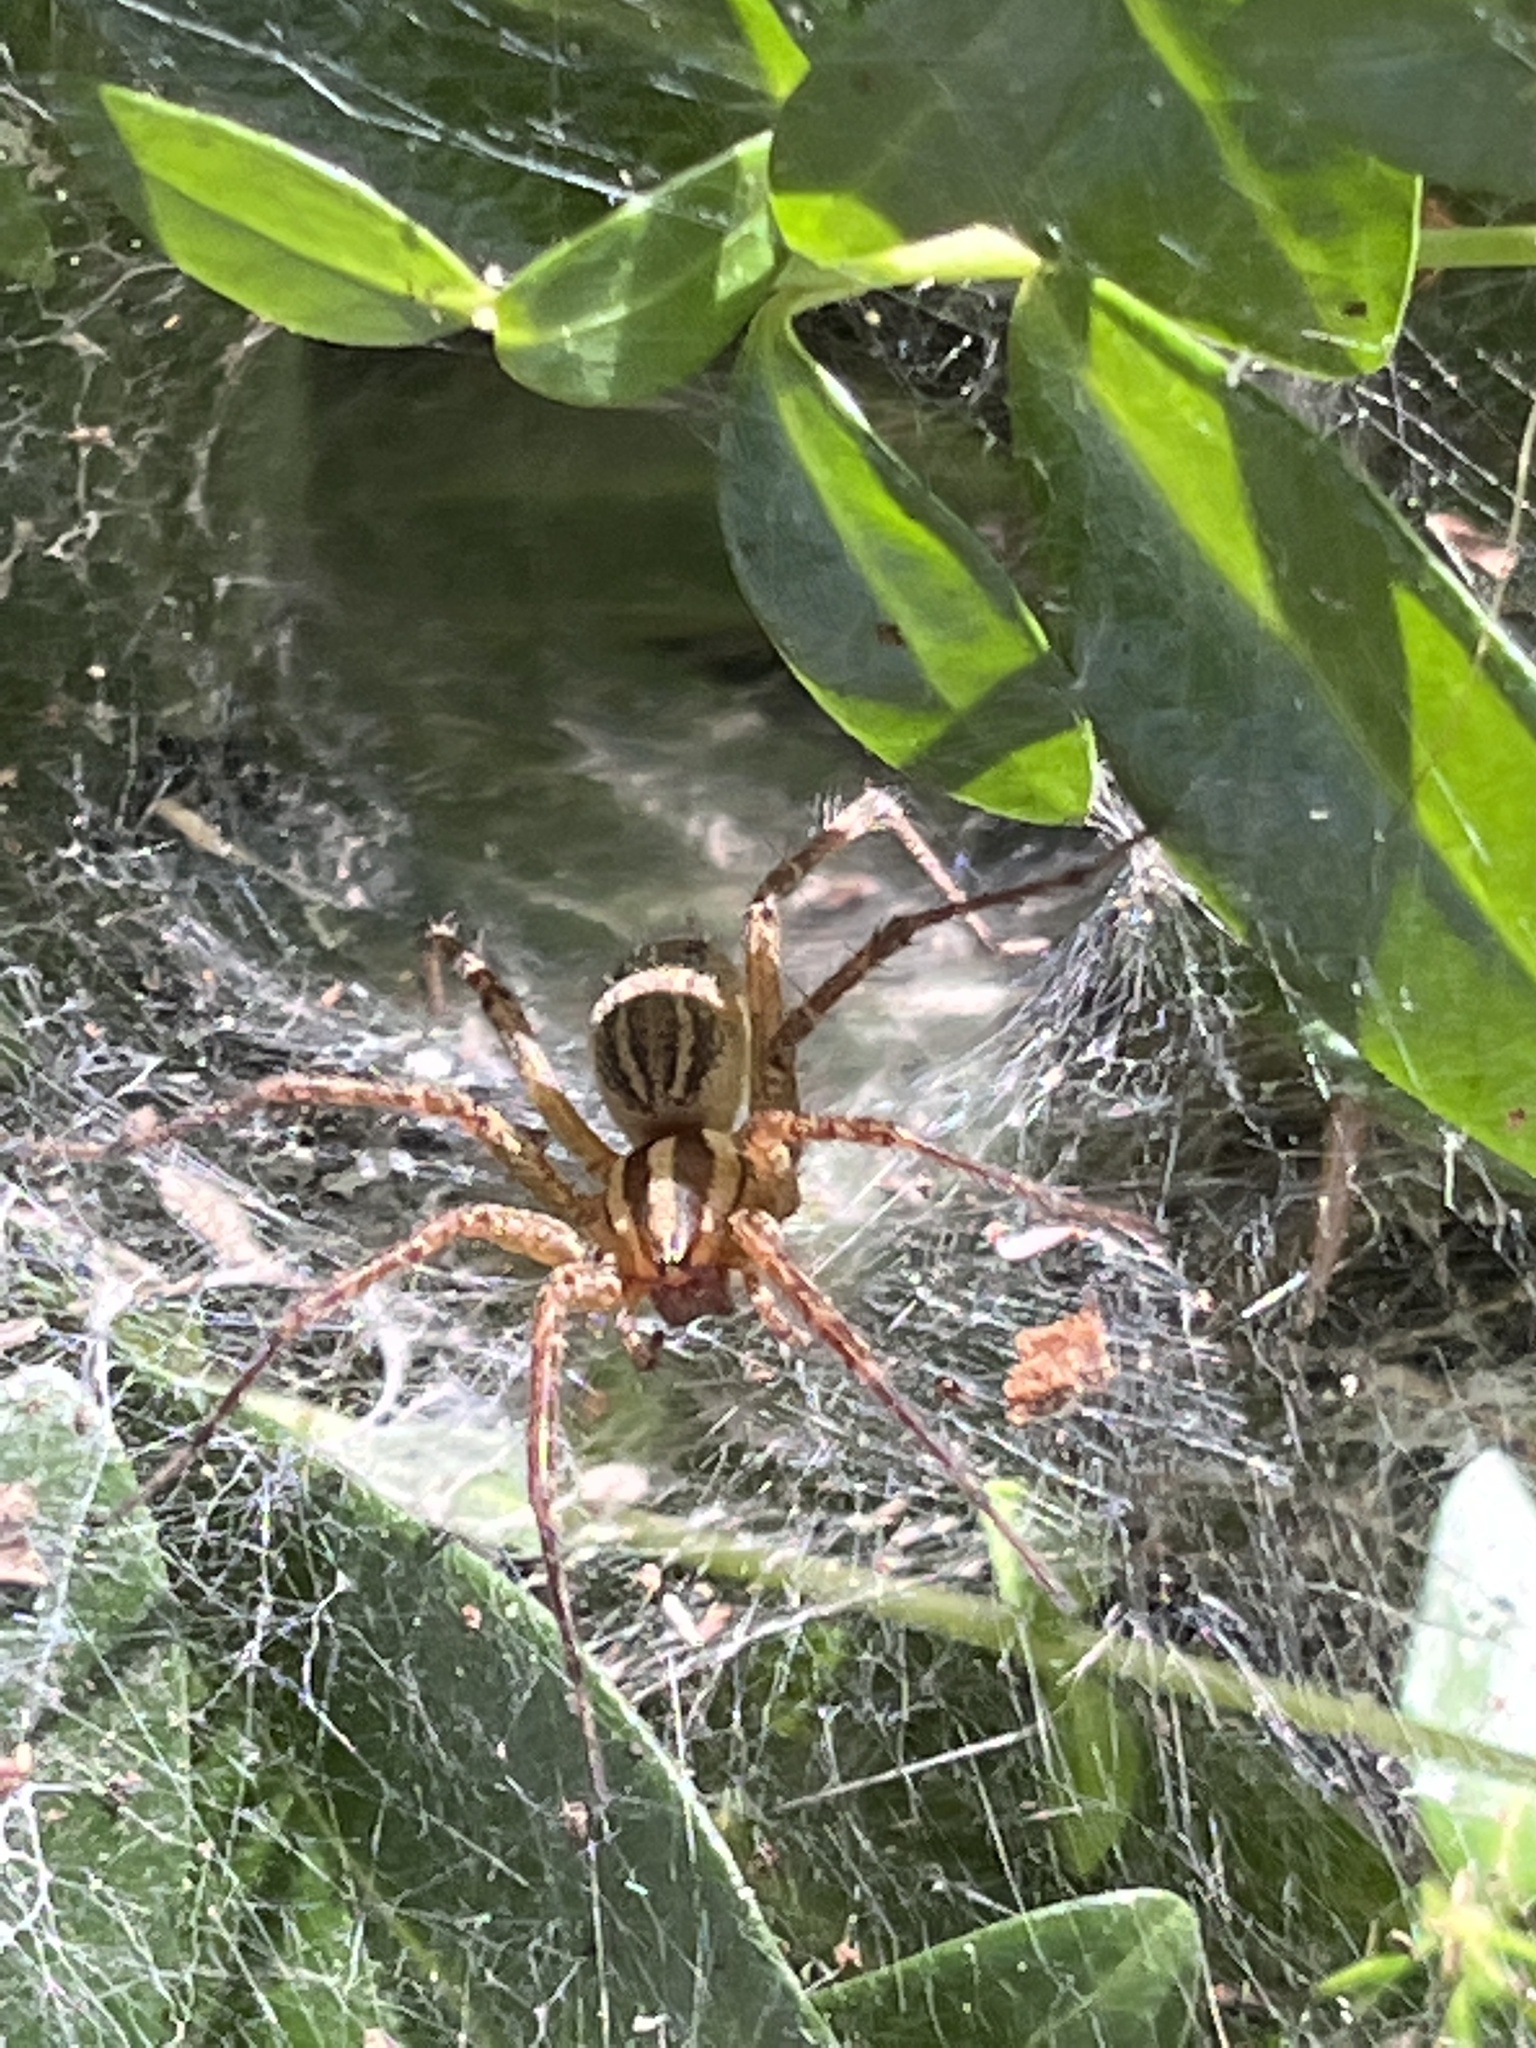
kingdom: Animalia
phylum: Arthropoda
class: Arachnida
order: Araneae
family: Agelenidae
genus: Agelenopsis
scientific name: Agelenopsis
